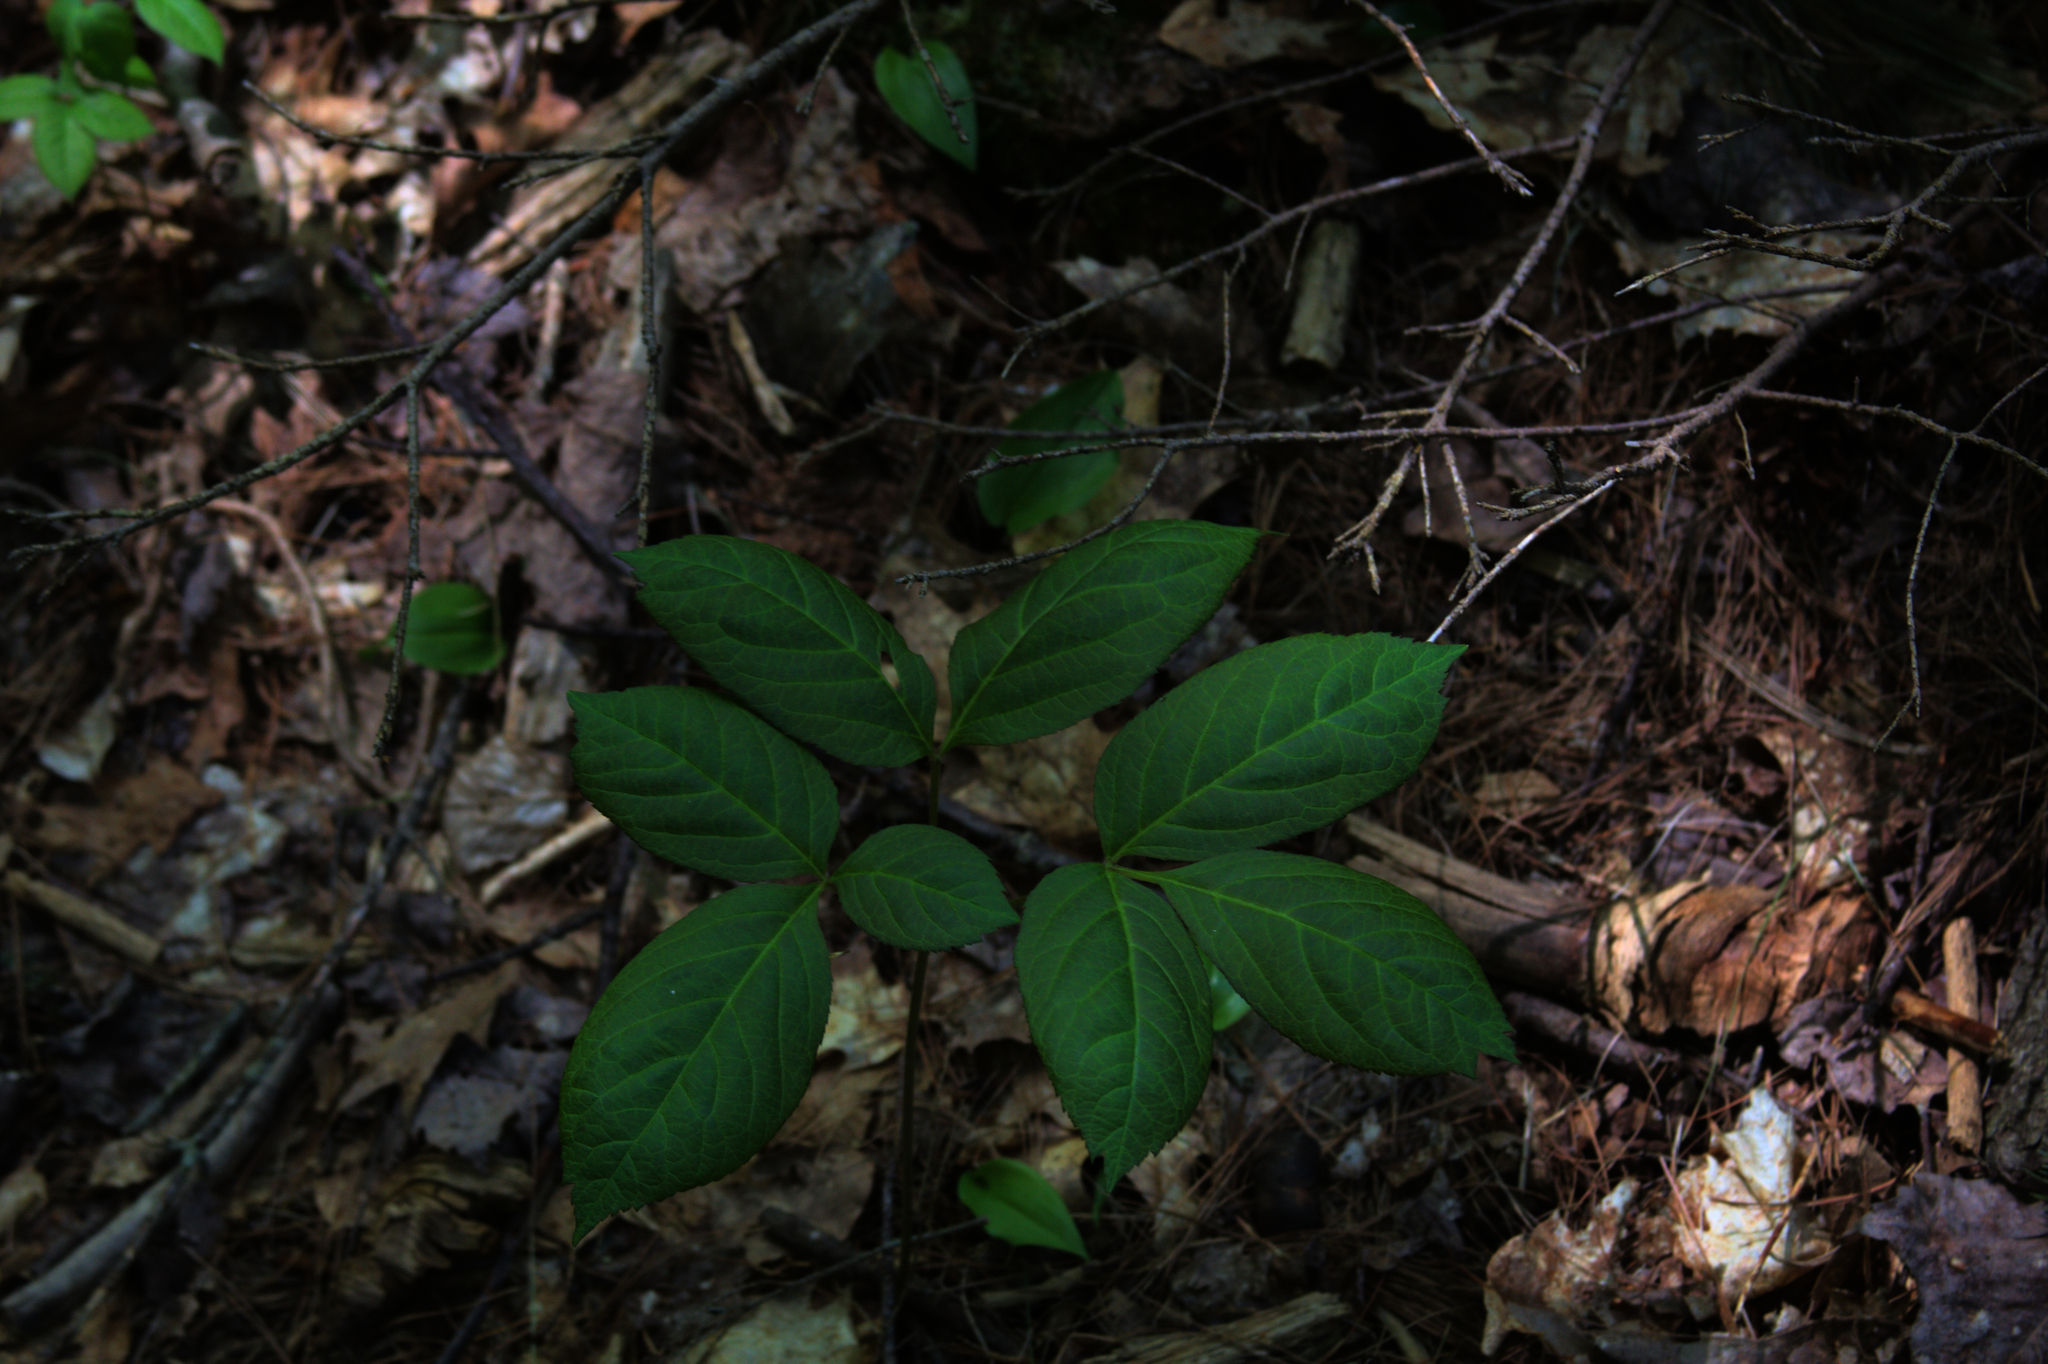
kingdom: Plantae
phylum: Tracheophyta
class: Magnoliopsida
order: Apiales
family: Araliaceae
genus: Aralia
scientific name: Aralia nudicaulis
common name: Wild sarsaparilla
